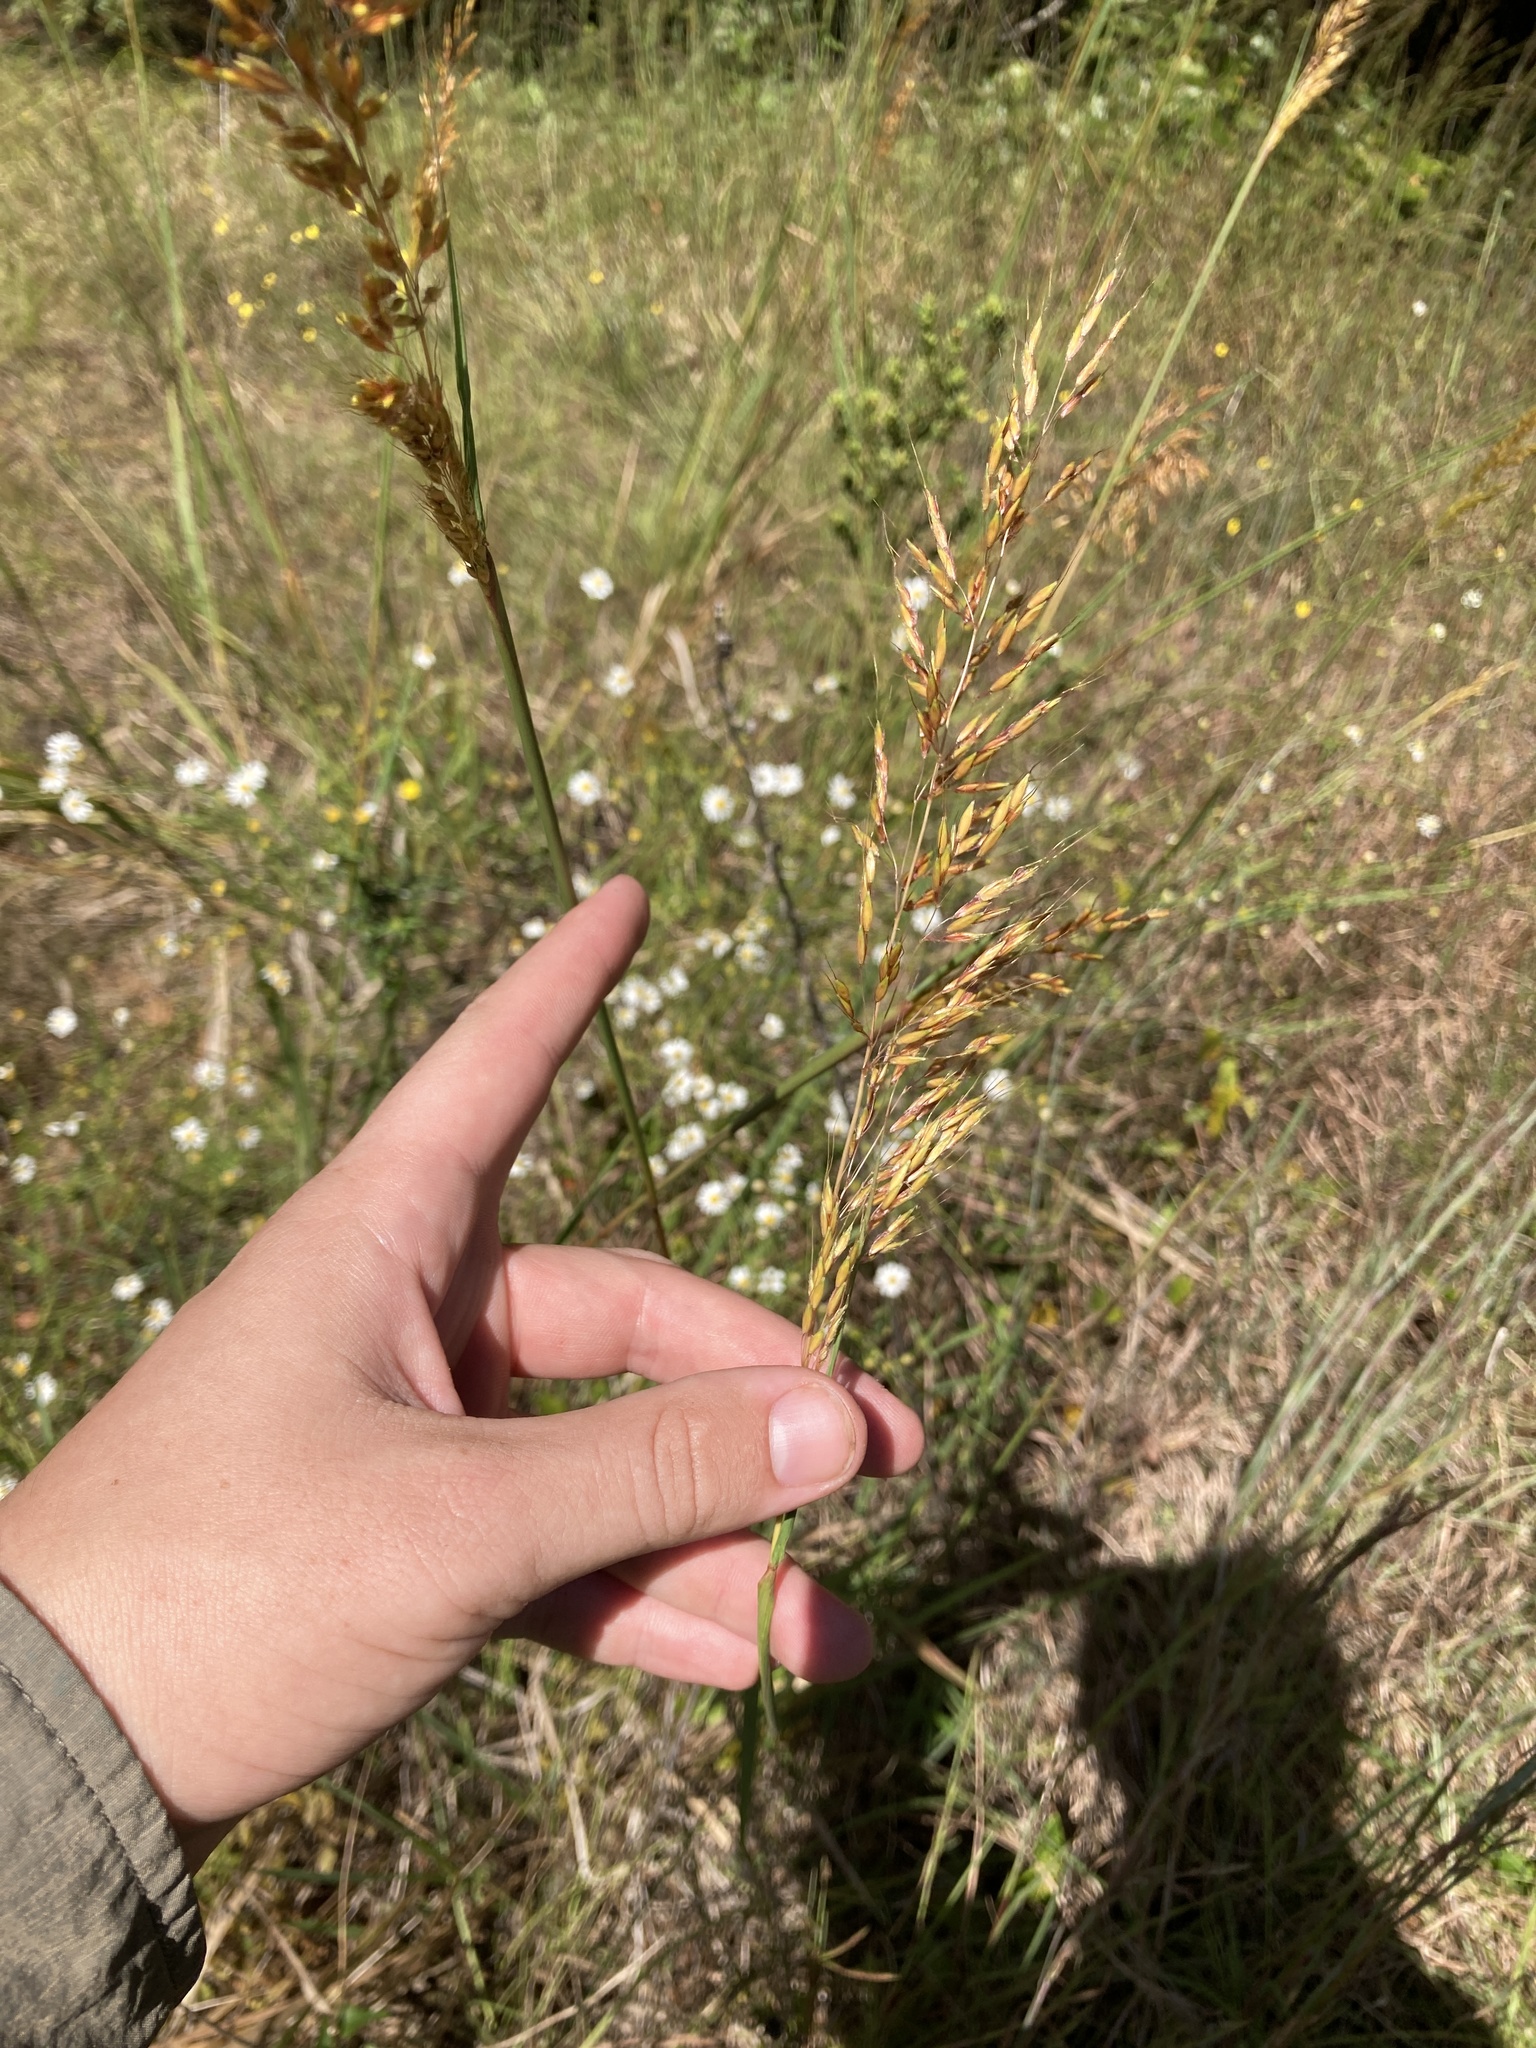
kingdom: Plantae
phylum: Tracheophyta
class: Liliopsida
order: Poales
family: Poaceae
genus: Sorghastrum
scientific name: Sorghastrum nutans
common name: Indian grass
